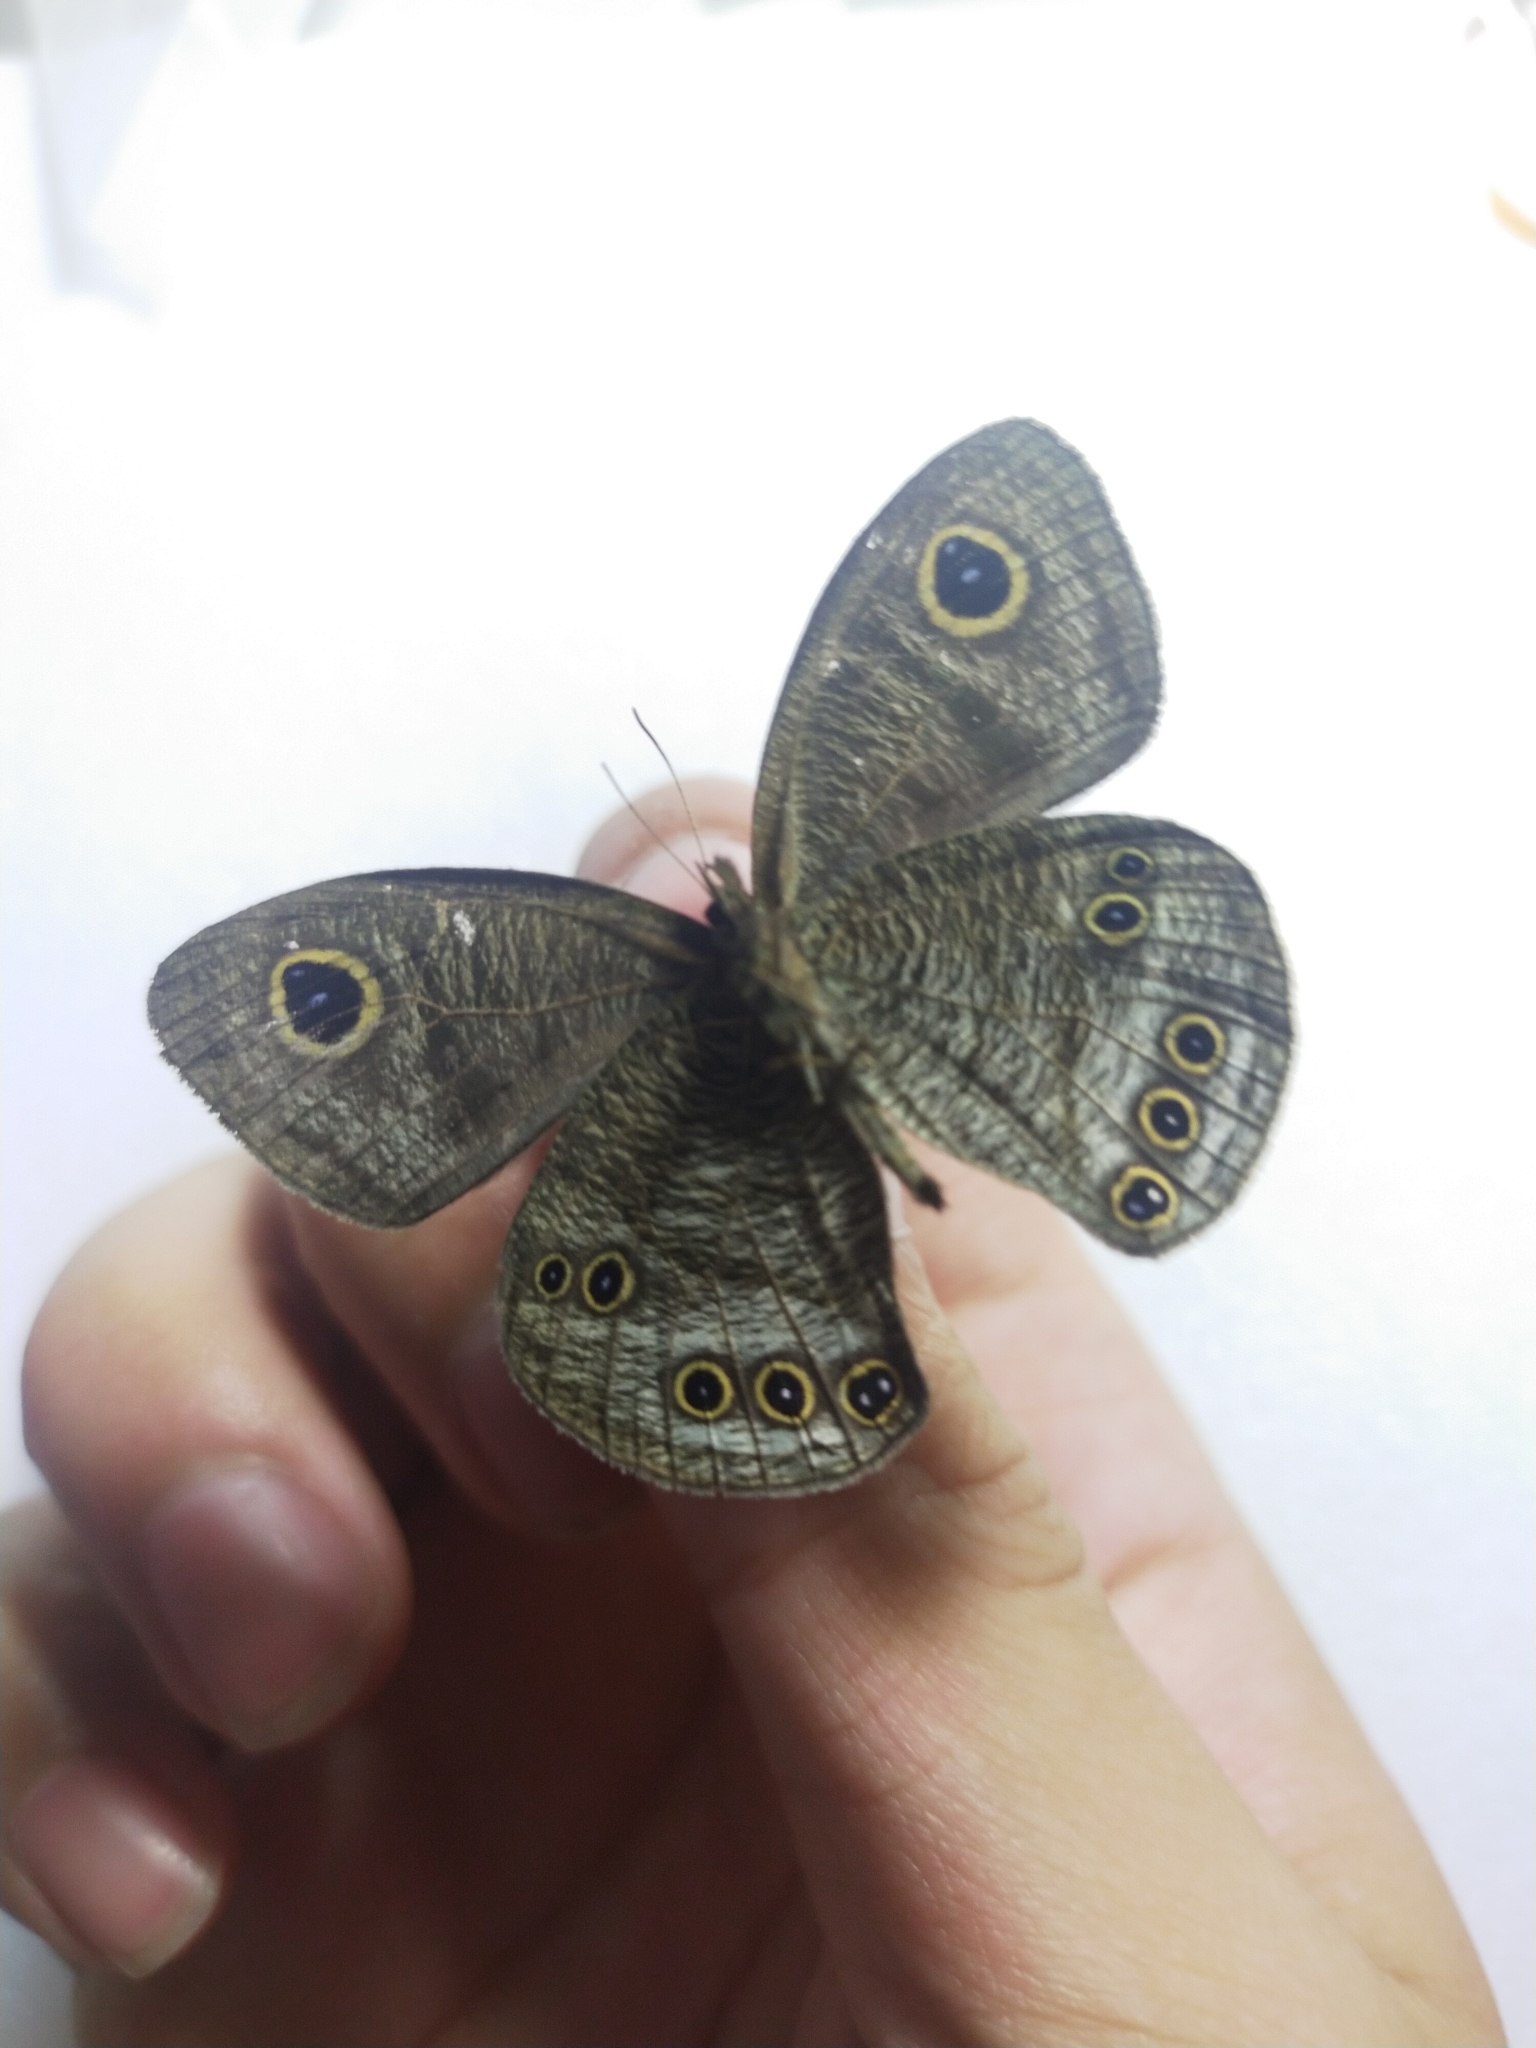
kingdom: Animalia
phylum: Arthropoda
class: Insecta
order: Lepidoptera
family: Nymphalidae
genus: Ypthima
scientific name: Ypthima baldus
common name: Common five-ring
